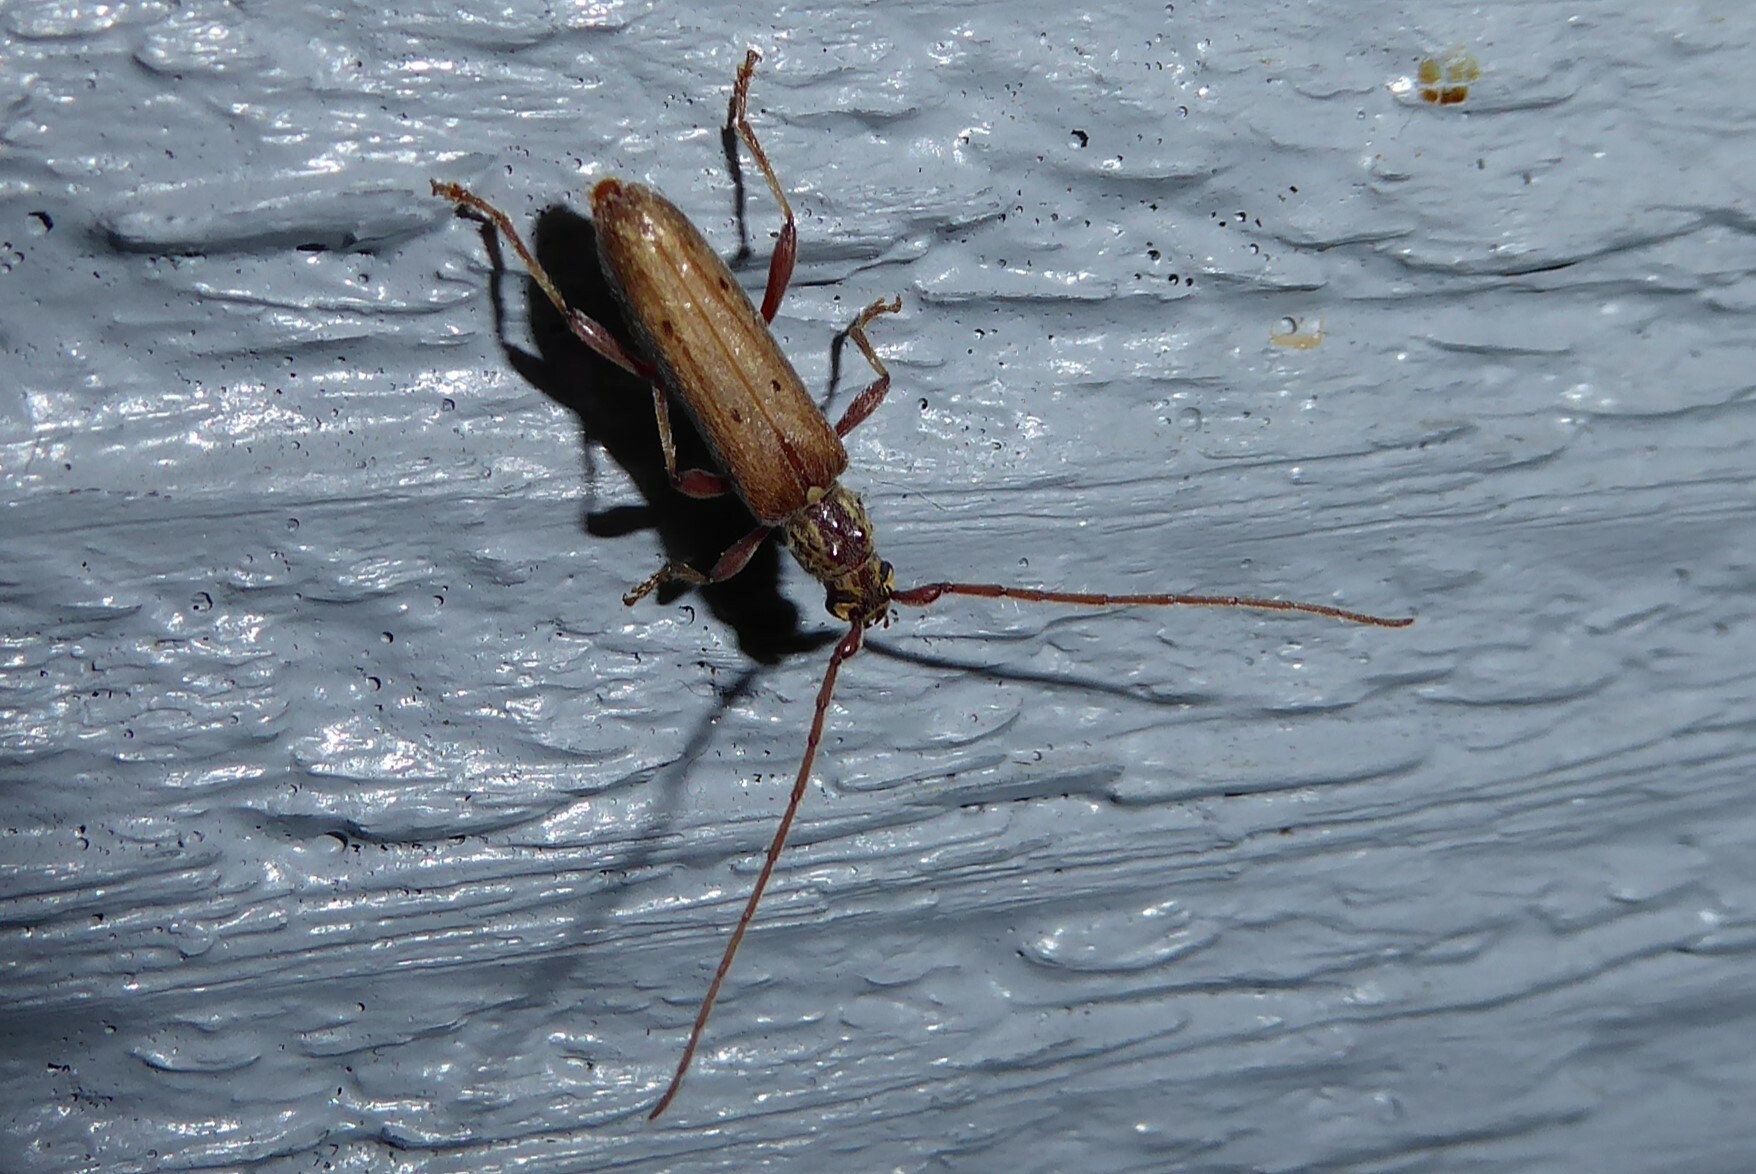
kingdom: Animalia
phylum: Arthropoda
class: Insecta
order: Coleoptera
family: Cerambycidae
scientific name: Cerambycidae
